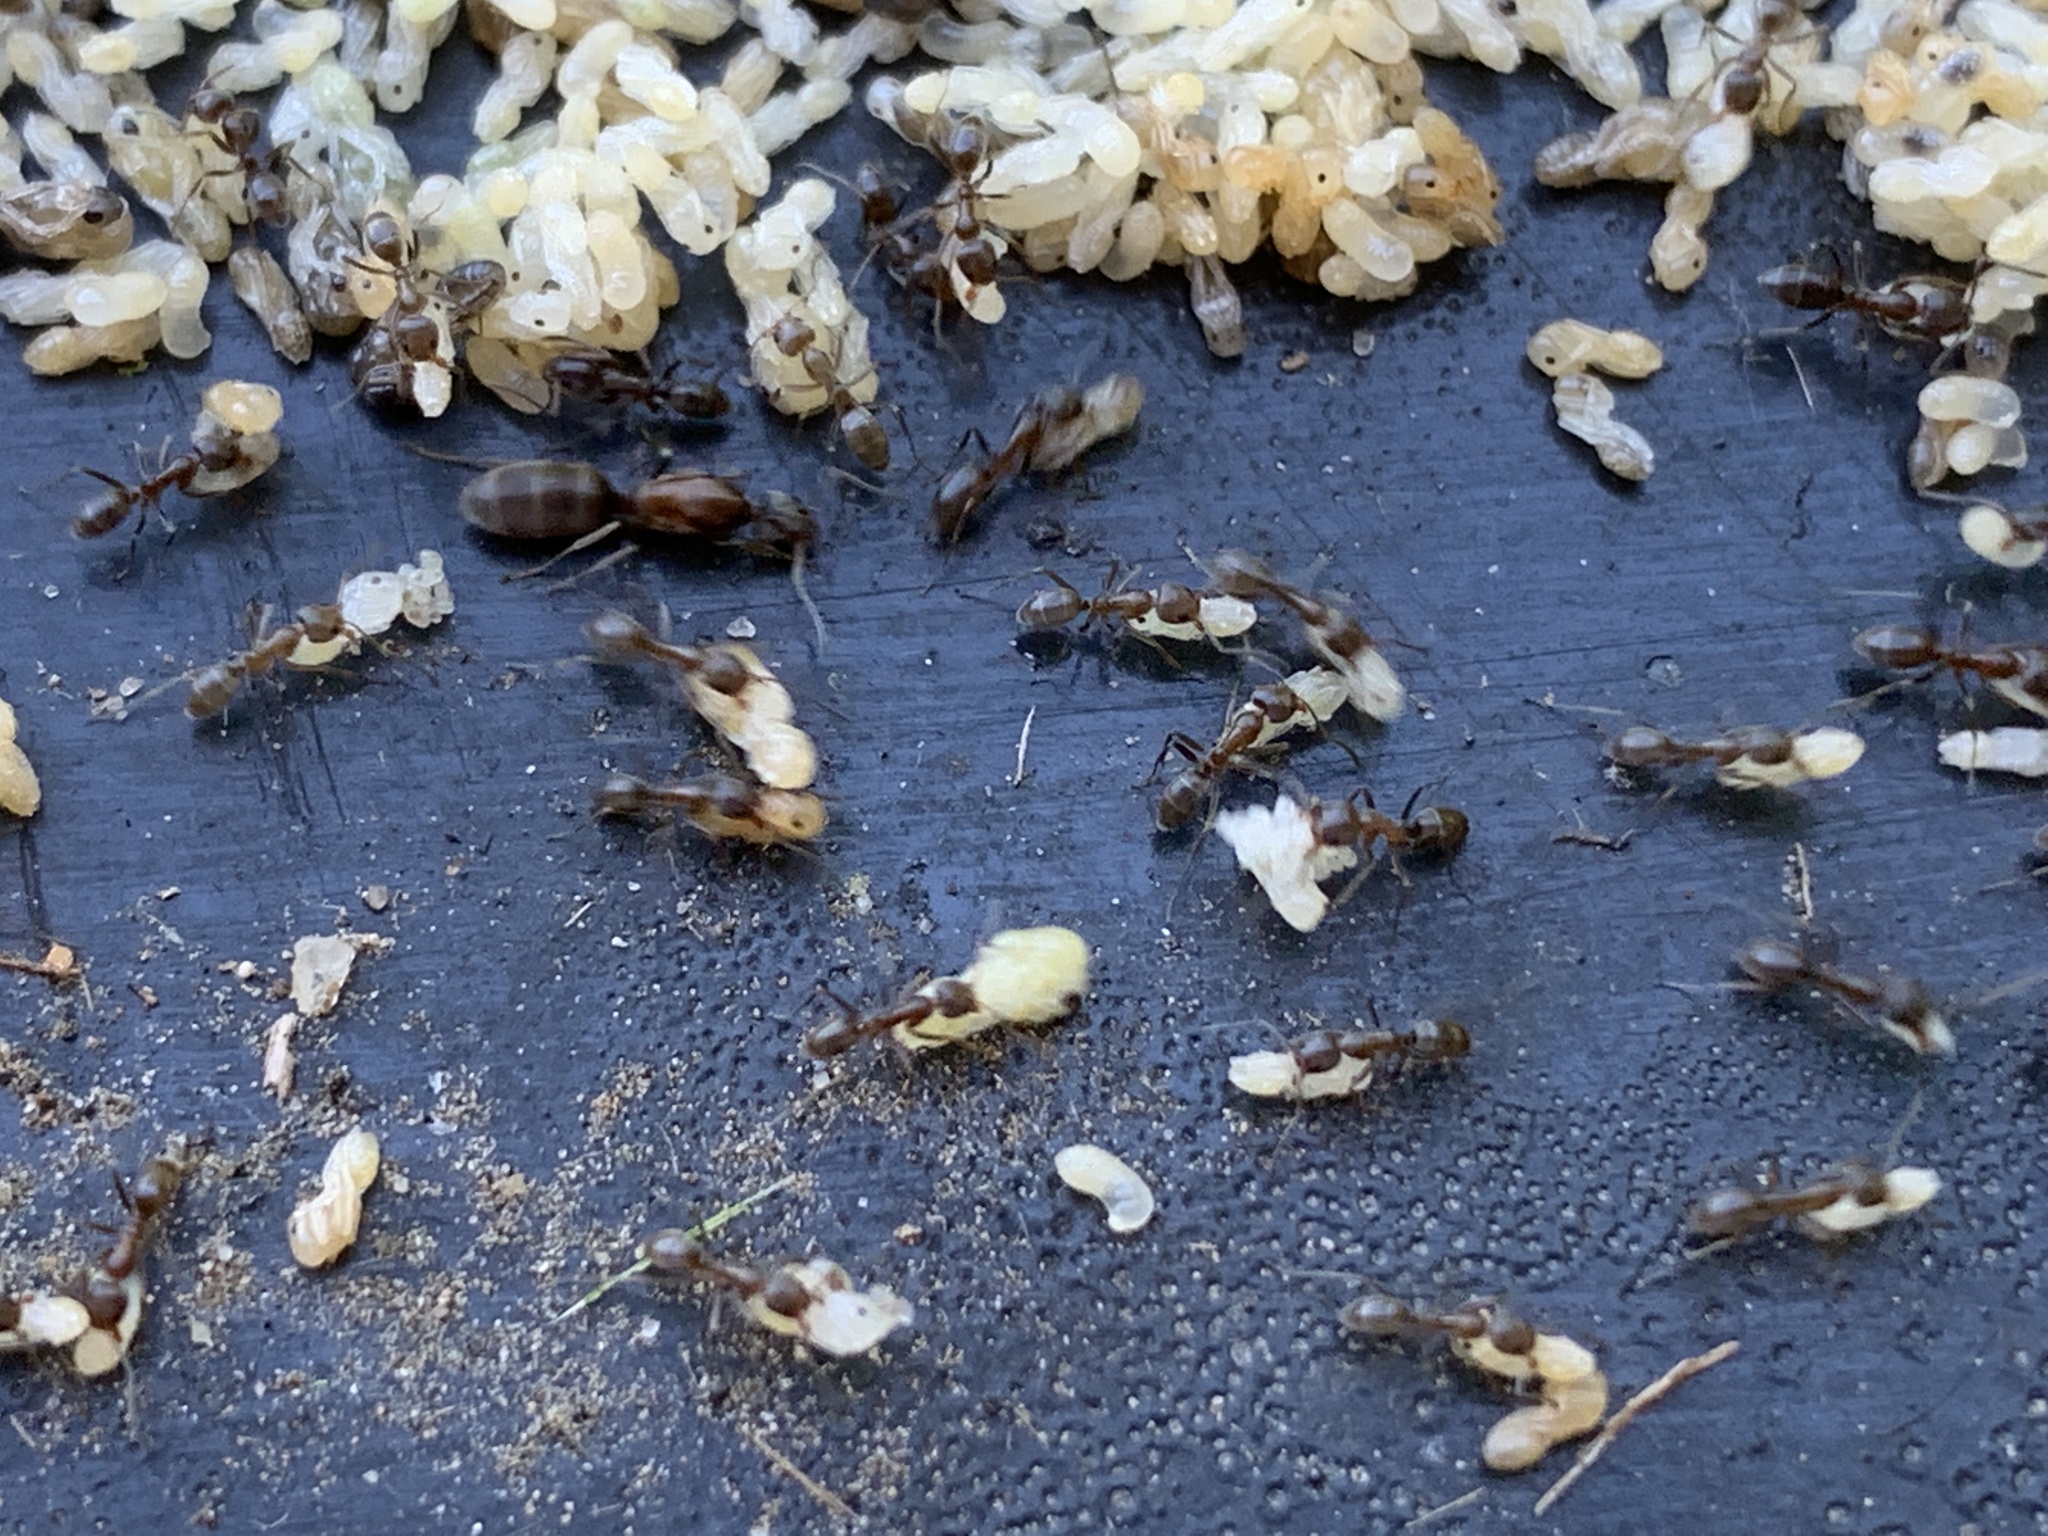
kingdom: Animalia
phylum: Arthropoda
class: Insecta
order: Hymenoptera
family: Formicidae
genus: Linepithema
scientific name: Linepithema humile
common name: Argentine ant
